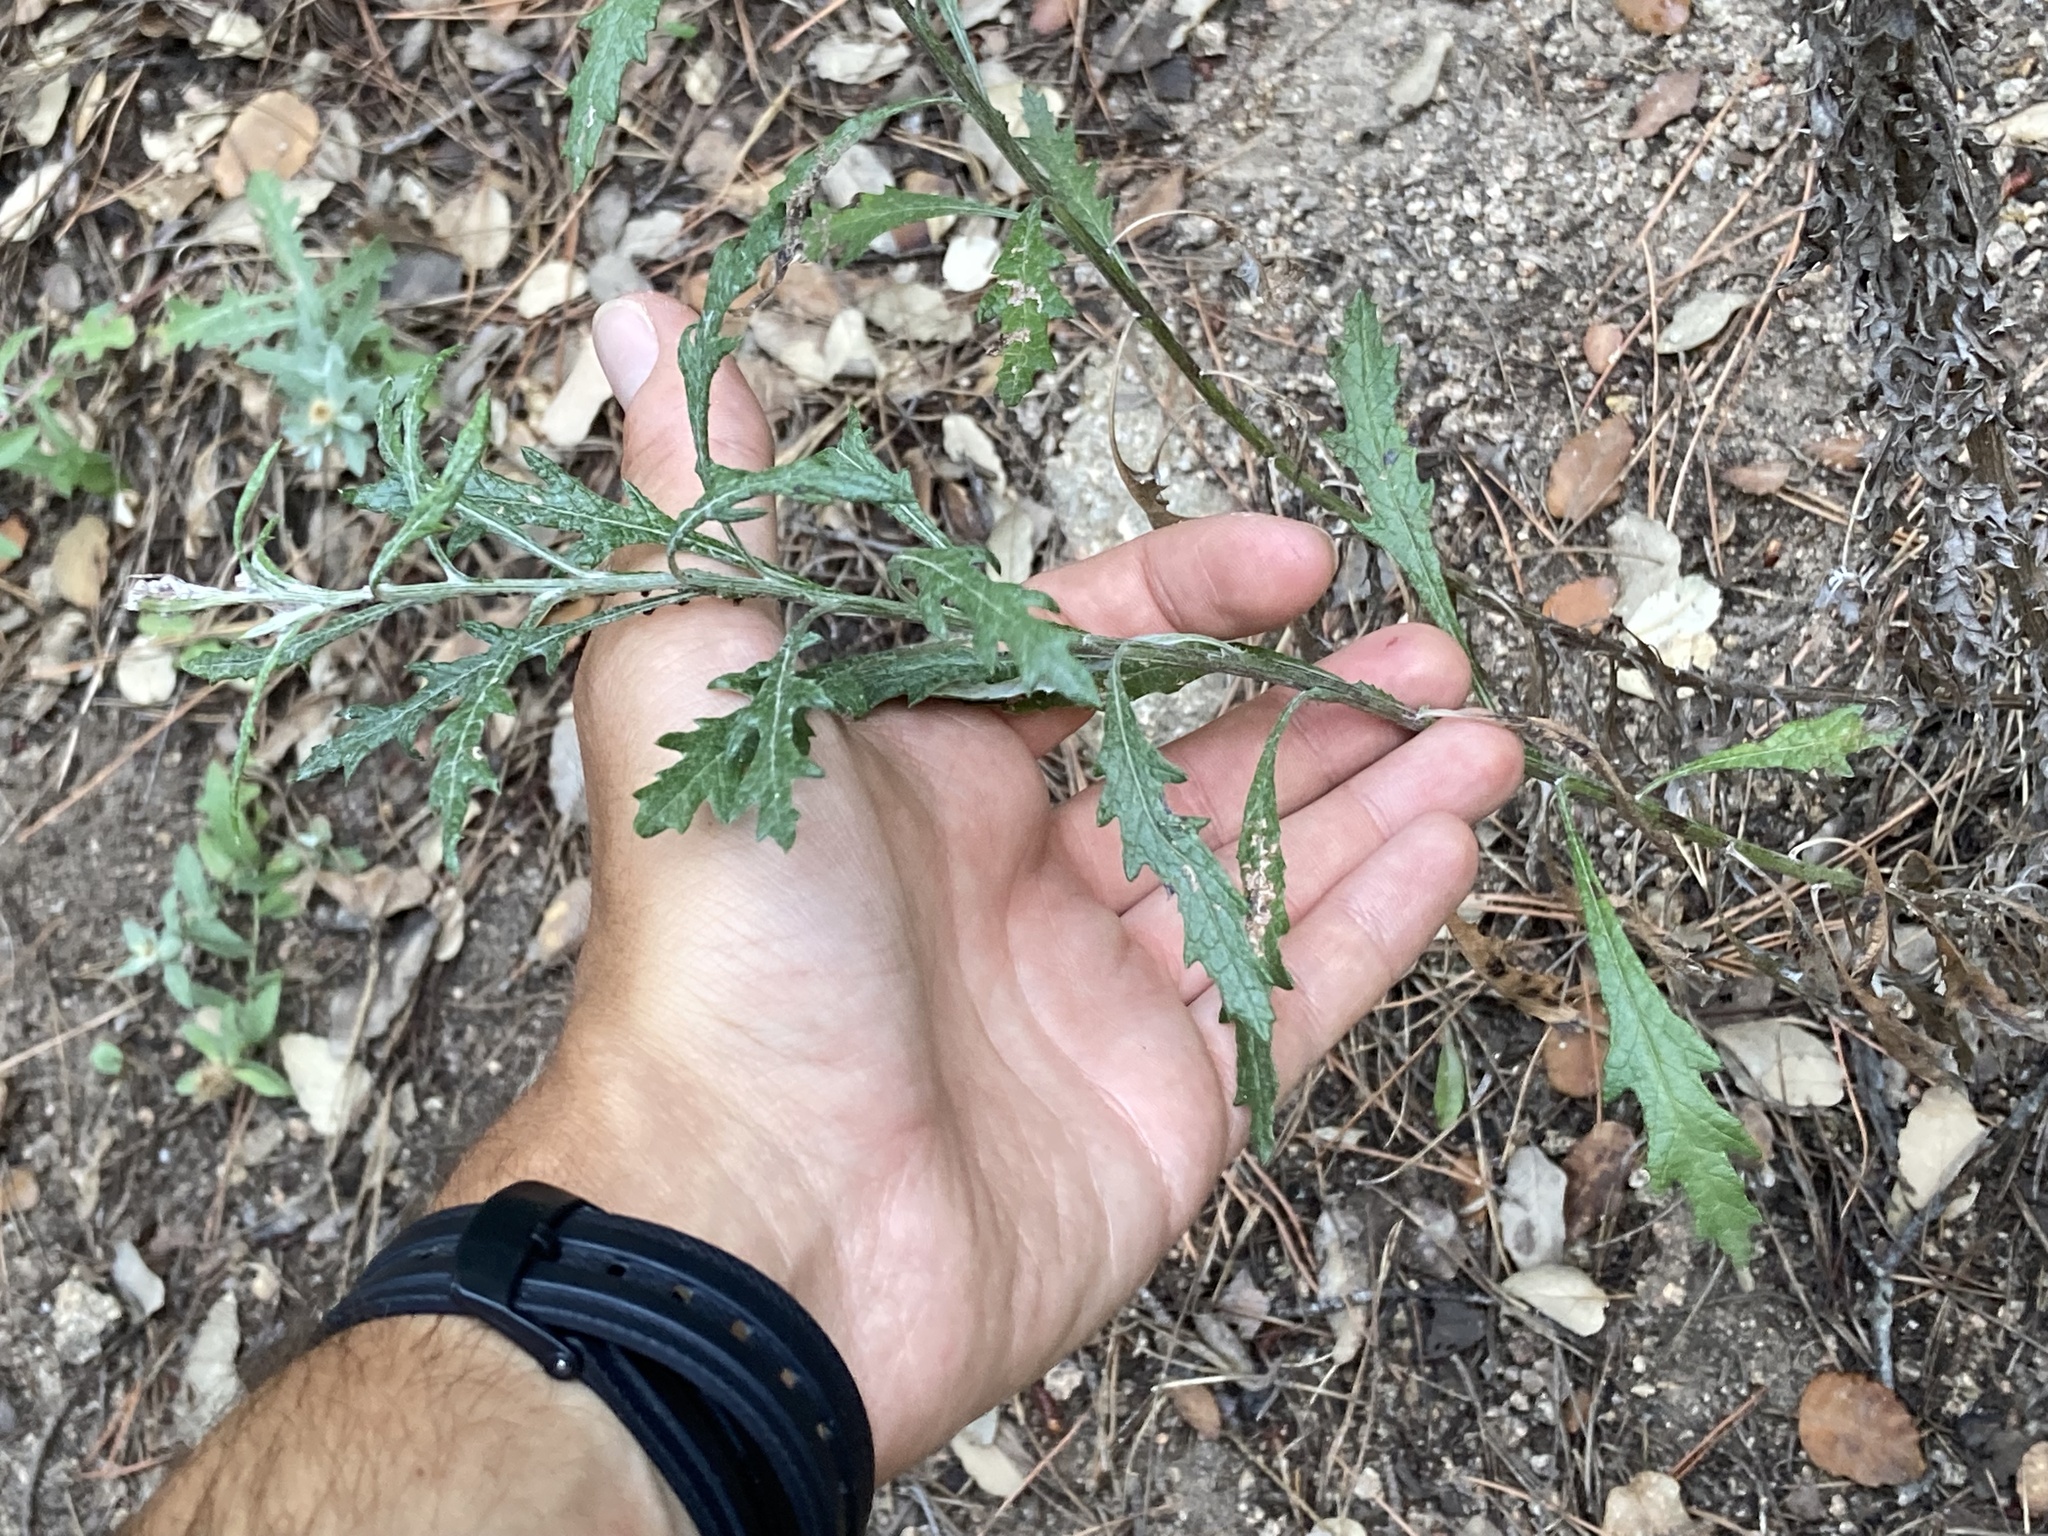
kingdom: Plantae
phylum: Tracheophyta
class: Magnoliopsida
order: Asterales
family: Asteraceae
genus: Senecio
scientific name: Senecio pterophorus
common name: Shoddy ragwort
